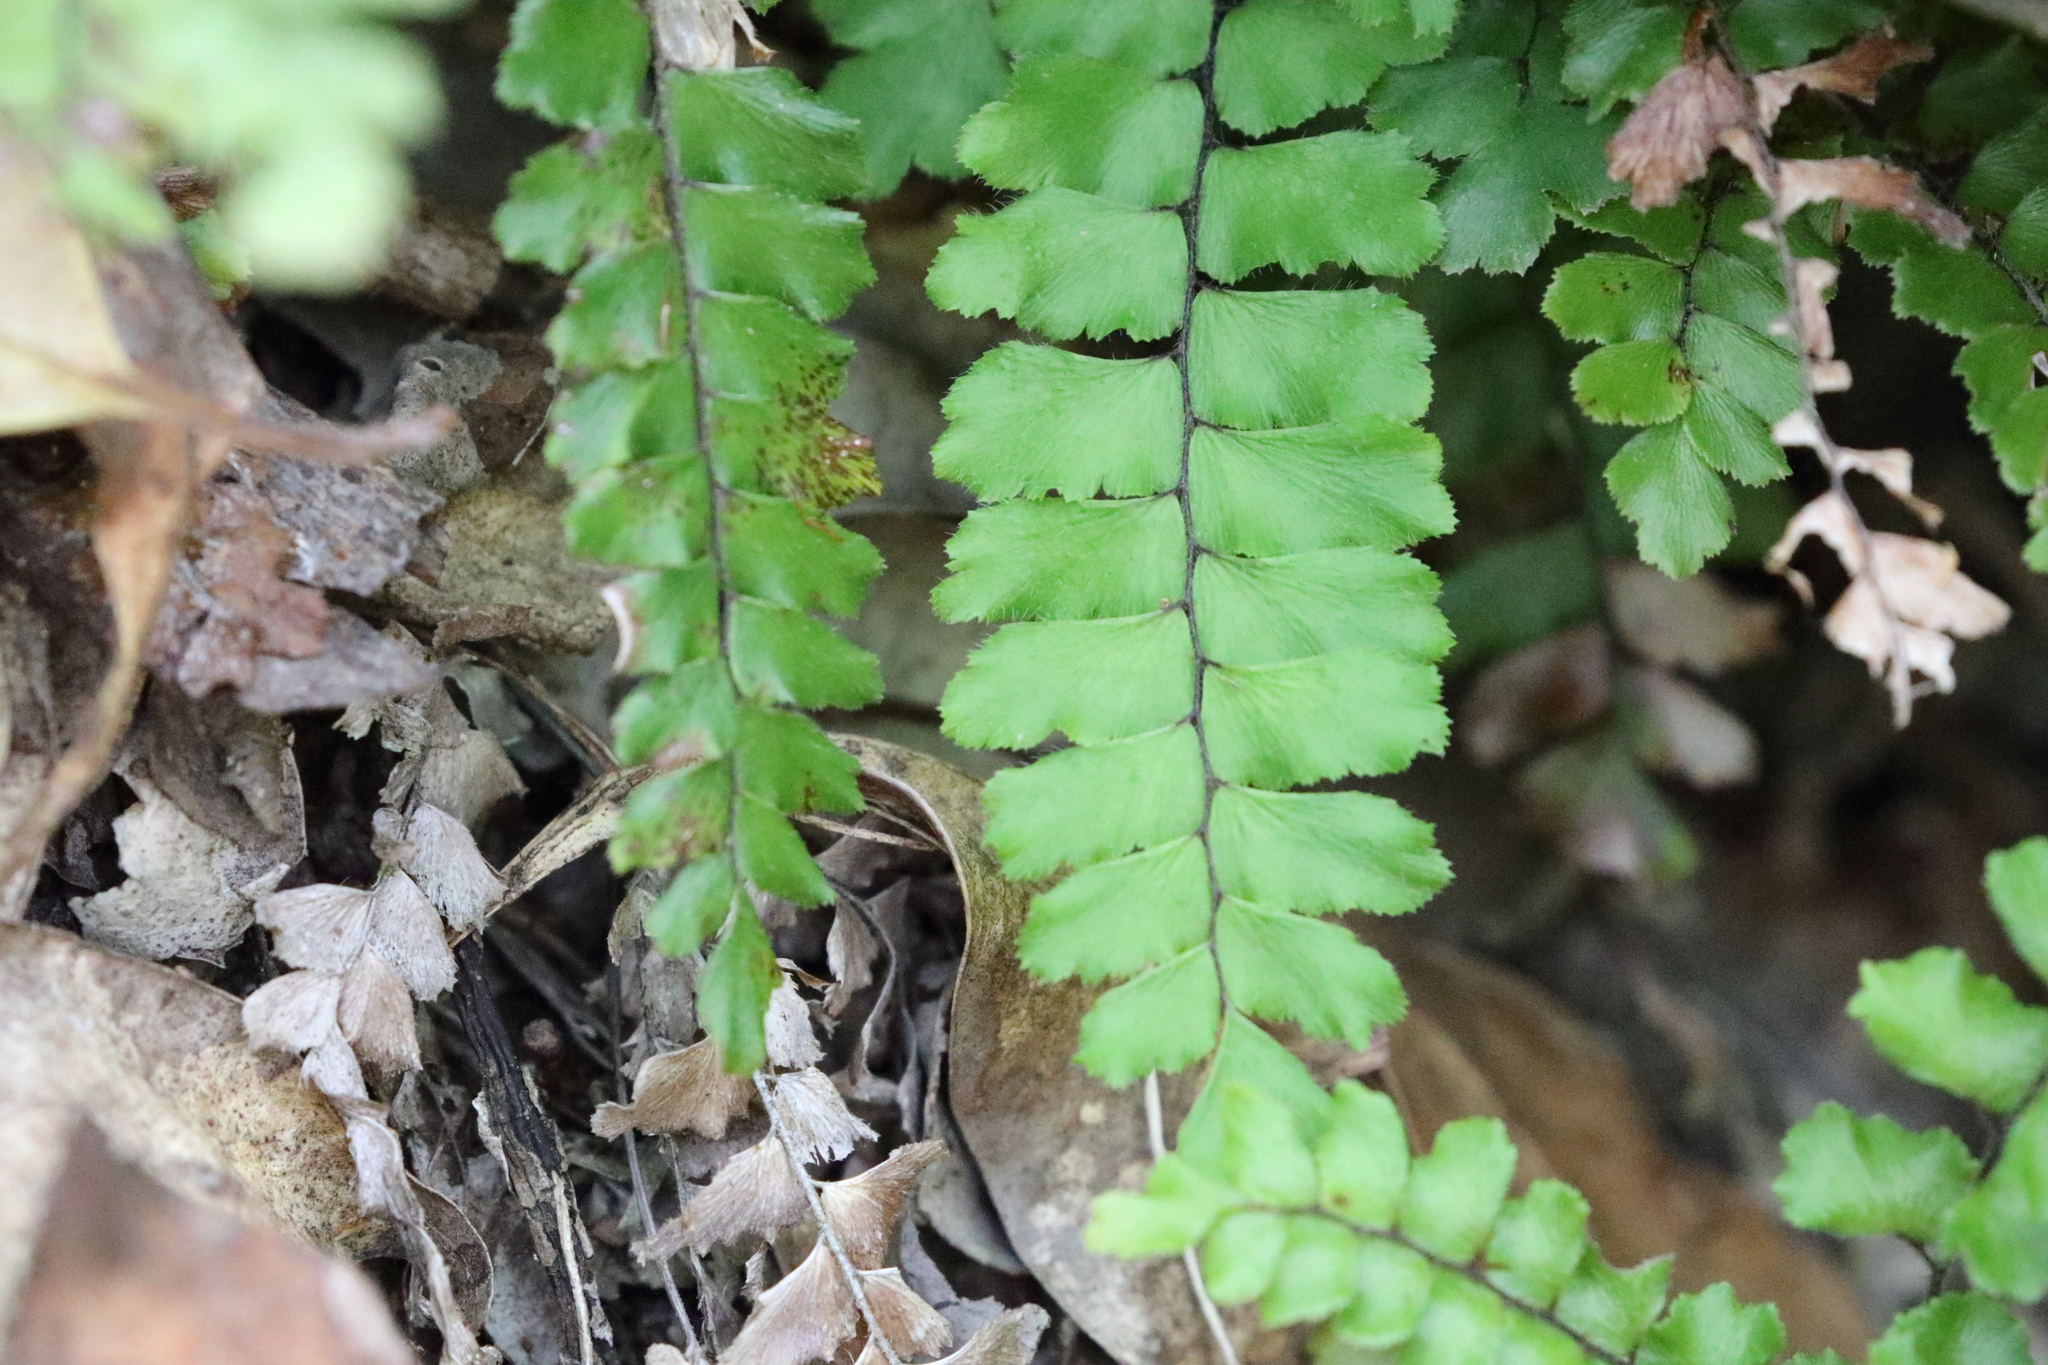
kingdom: Plantae
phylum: Tracheophyta
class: Polypodiopsida
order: Polypodiales
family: Pteridaceae
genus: Adiantum
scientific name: Adiantum hispidulum
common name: Rough maidenhair
